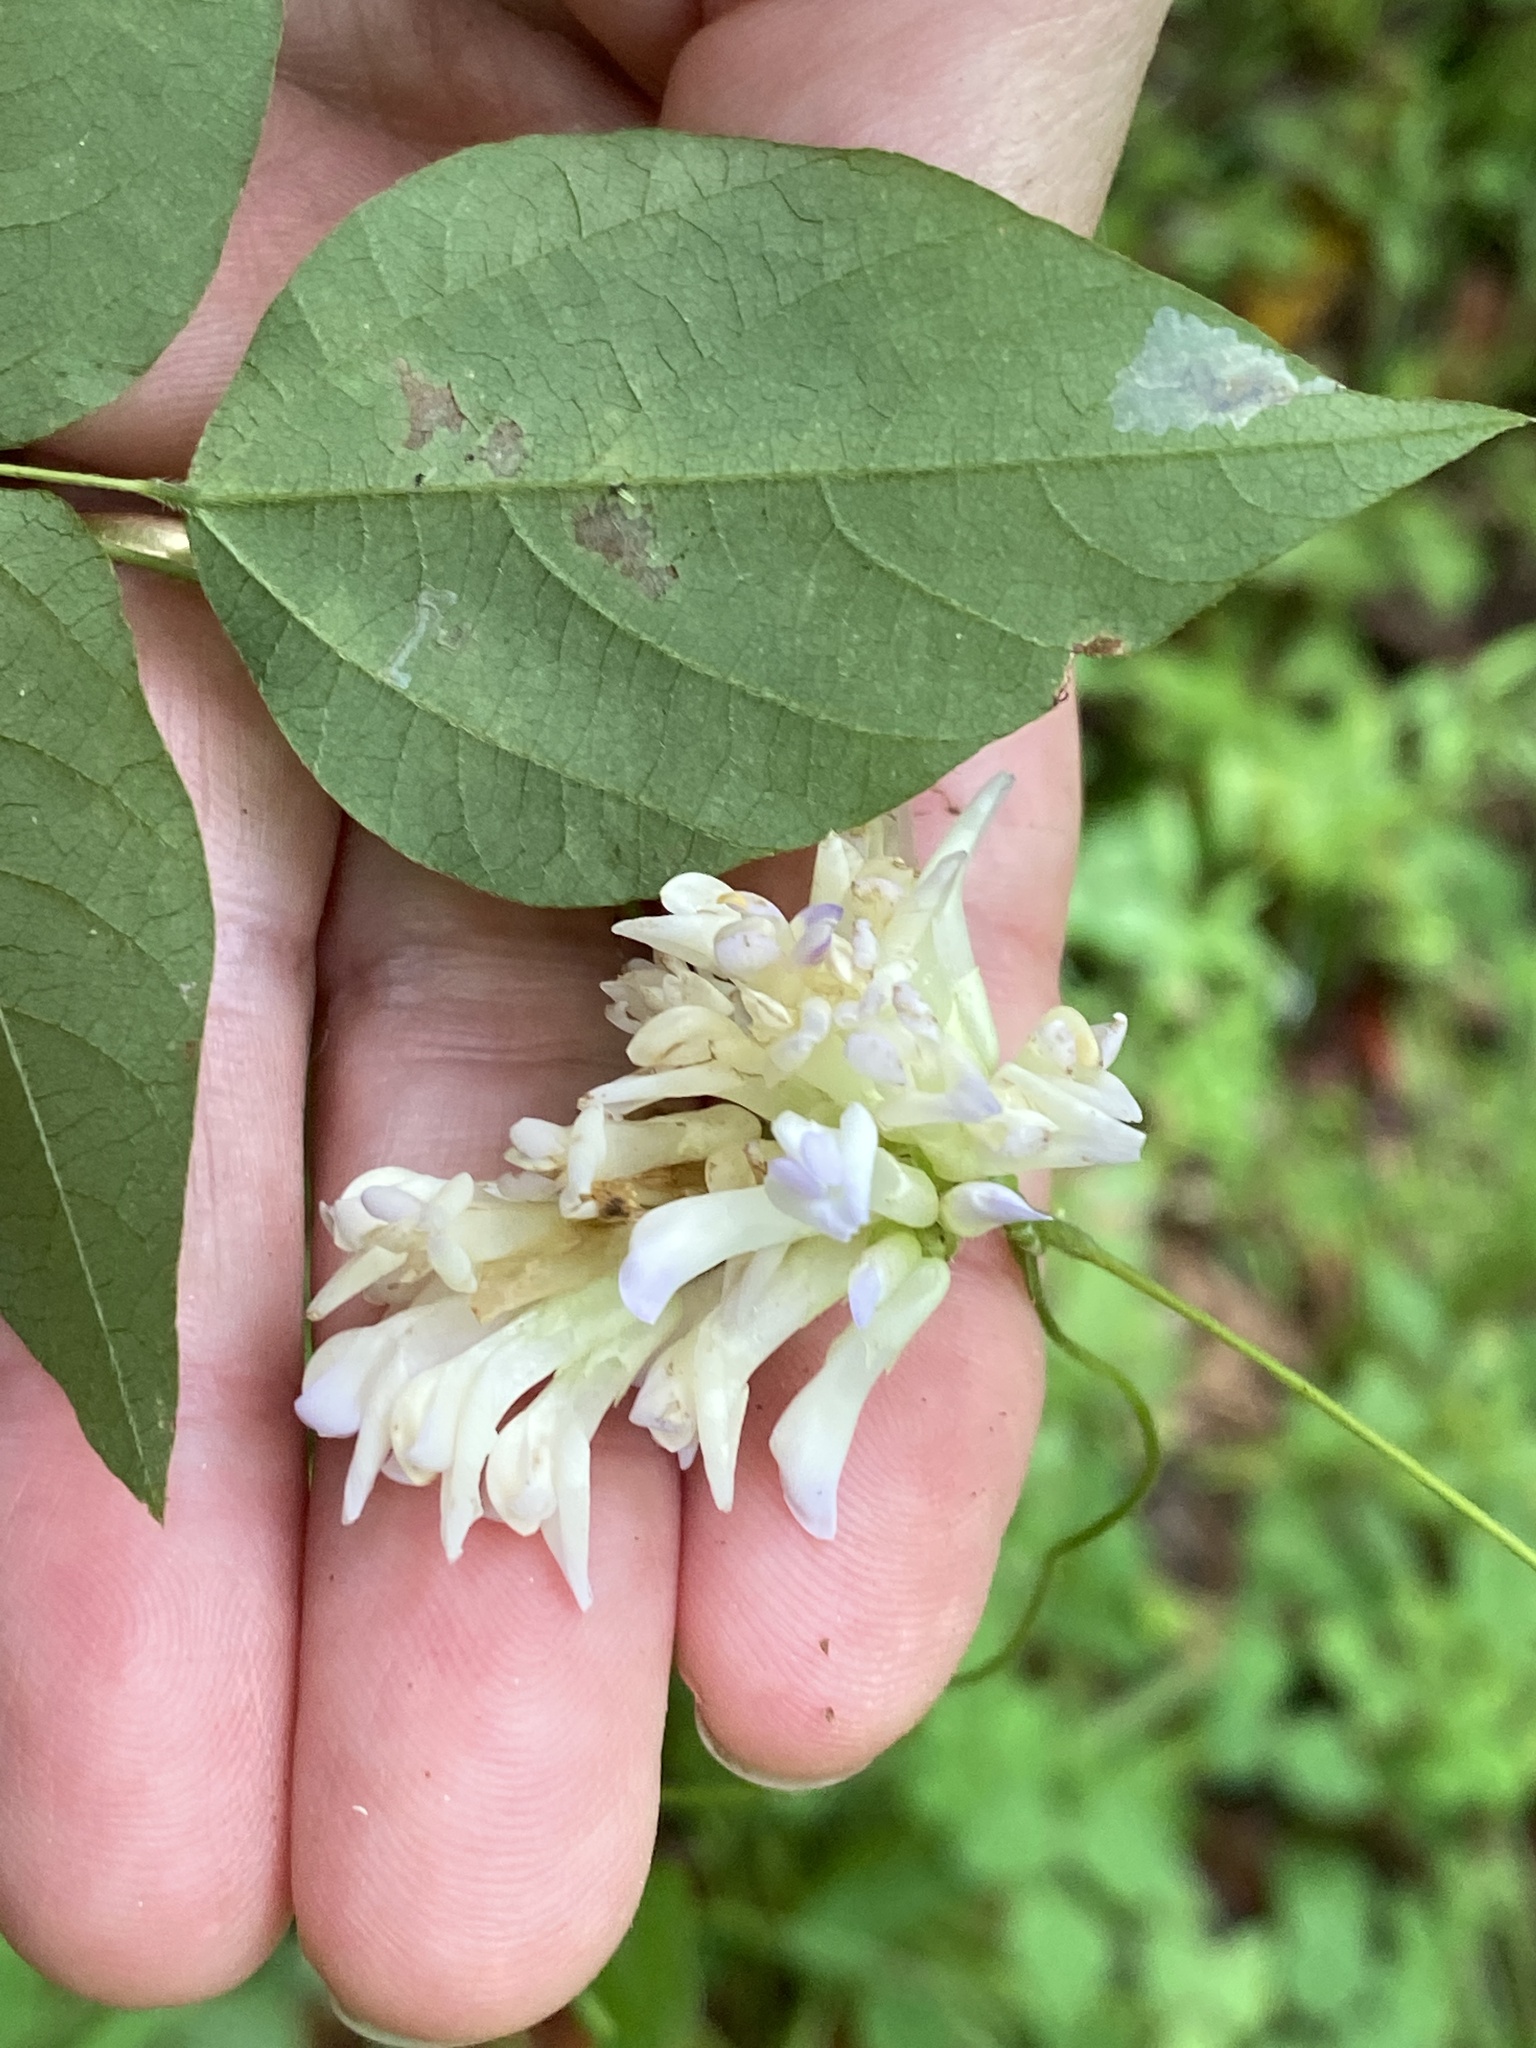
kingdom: Plantae
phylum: Tracheophyta
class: Magnoliopsida
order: Fabales
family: Fabaceae
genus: Amphicarpaea
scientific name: Amphicarpaea bracteata
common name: American hog peanut
